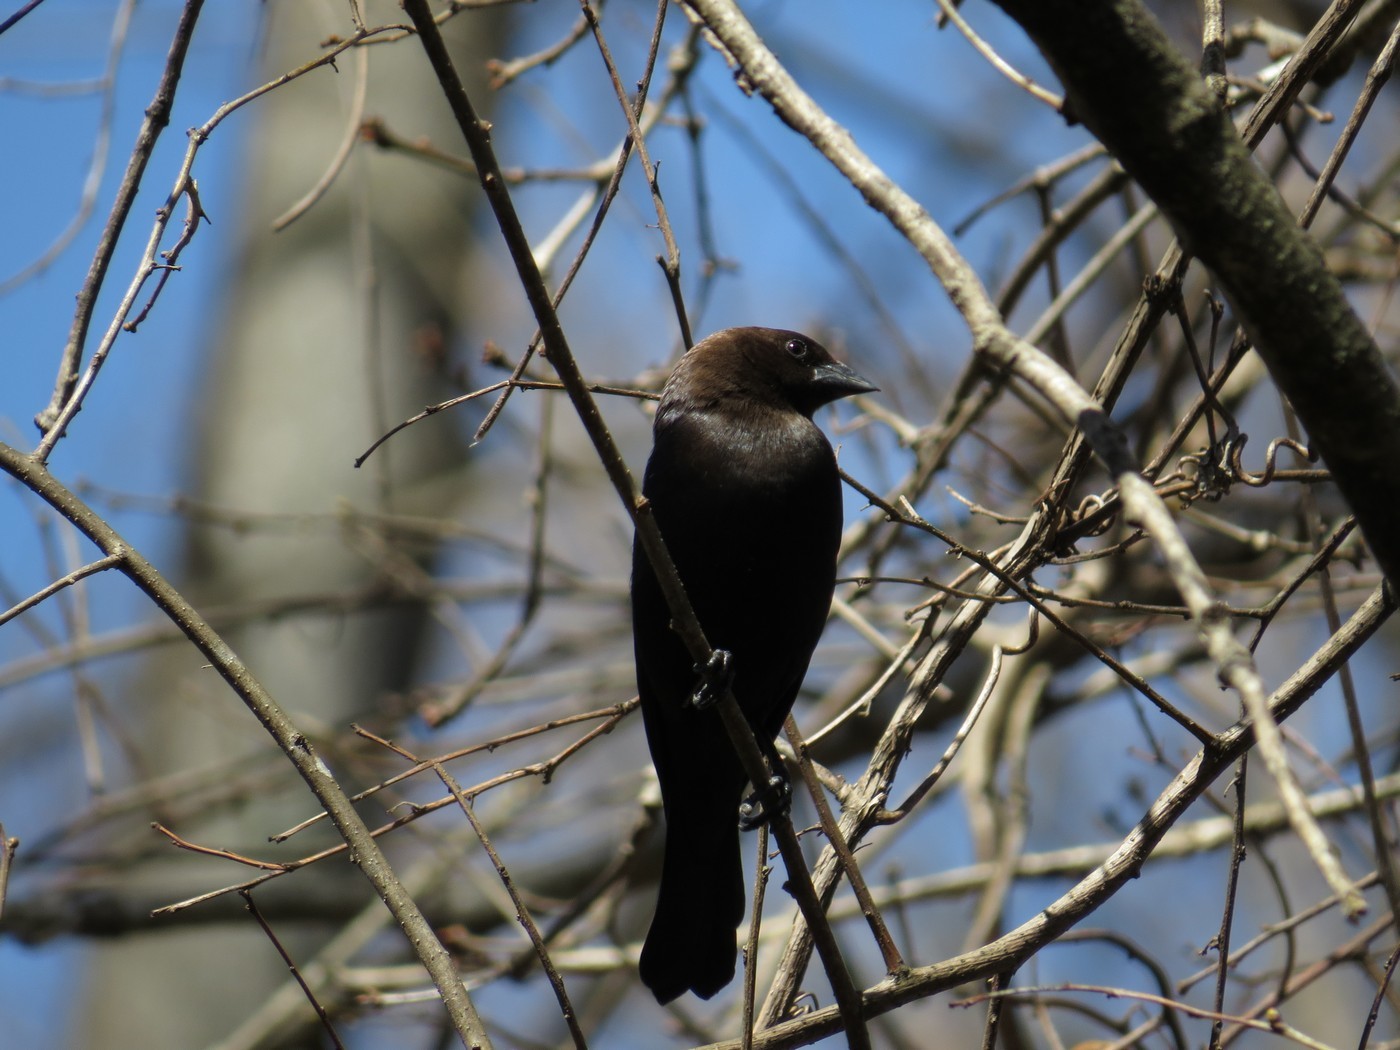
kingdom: Animalia
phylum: Chordata
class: Aves
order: Passeriformes
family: Icteridae
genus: Molothrus
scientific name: Molothrus ater
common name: Brown-headed cowbird
